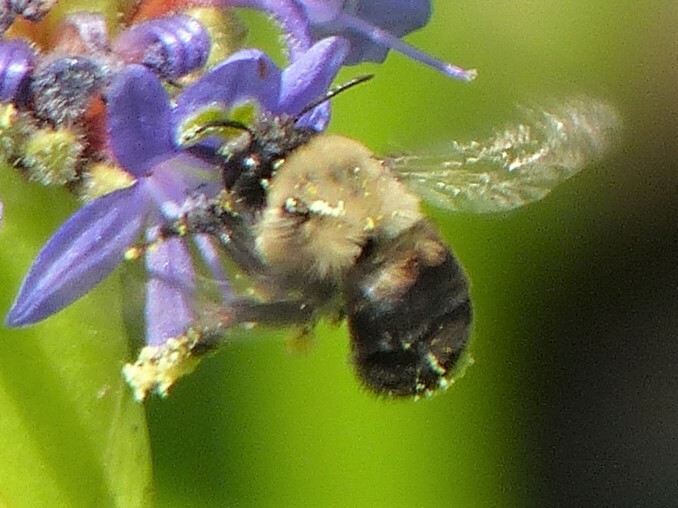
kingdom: Animalia
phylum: Arthropoda
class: Insecta
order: Hymenoptera
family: Apidae
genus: Anthophora
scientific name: Anthophora abrupta
